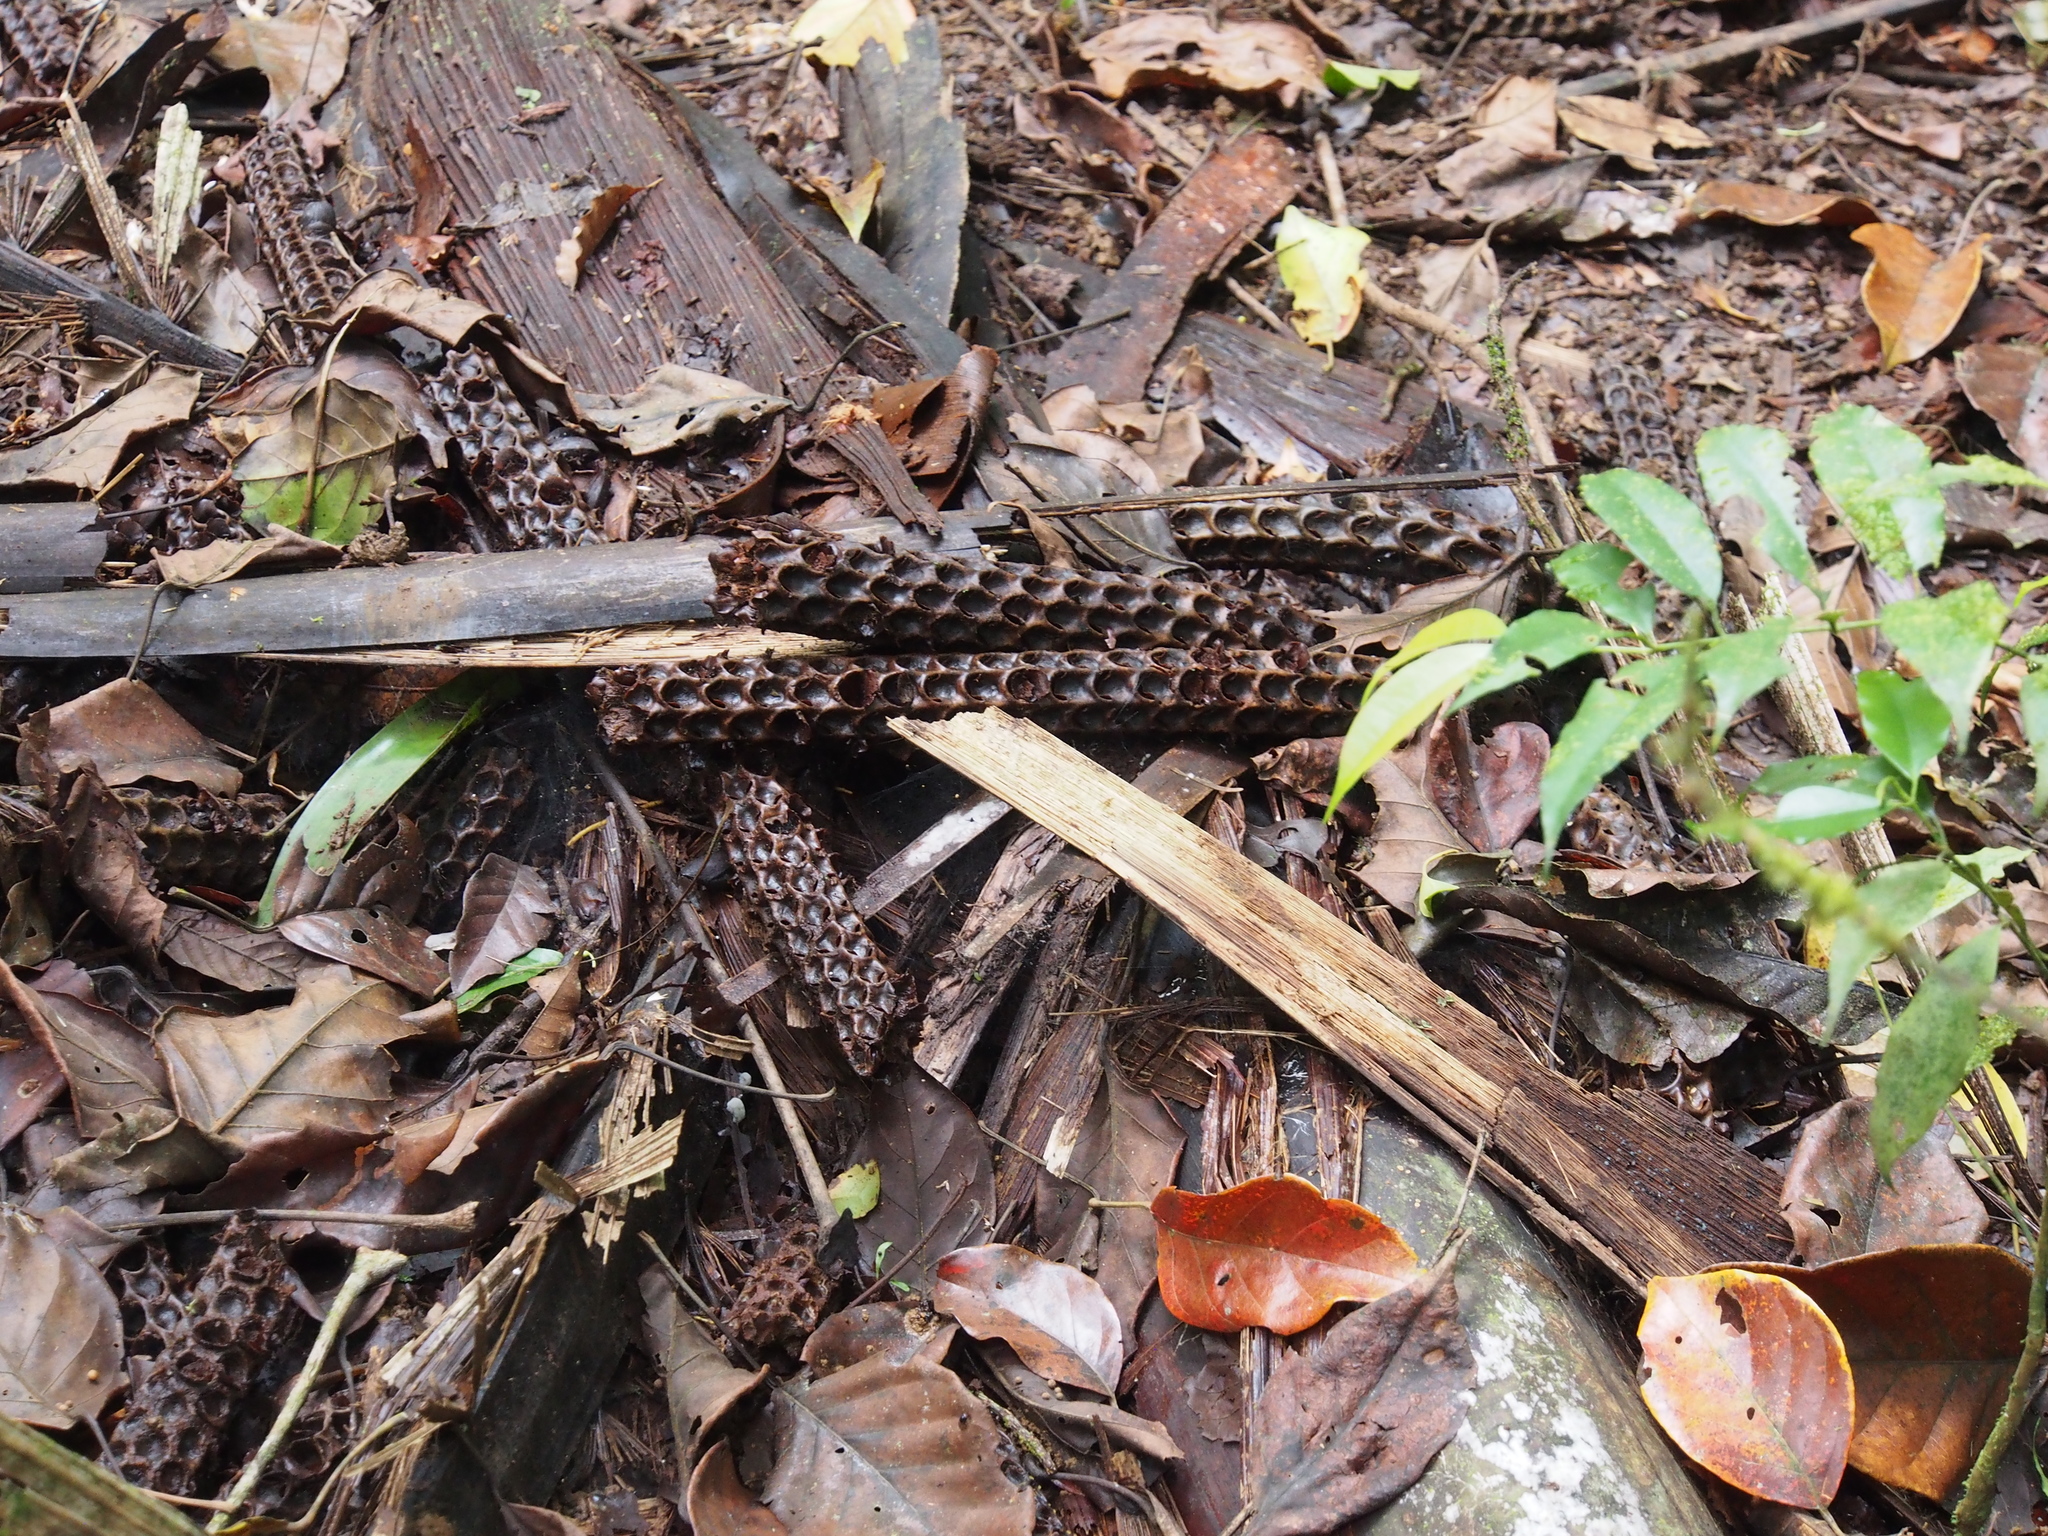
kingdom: Plantae
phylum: Tracheophyta
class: Liliopsida
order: Arecales
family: Arecaceae
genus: Welfia
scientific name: Welfia regia
